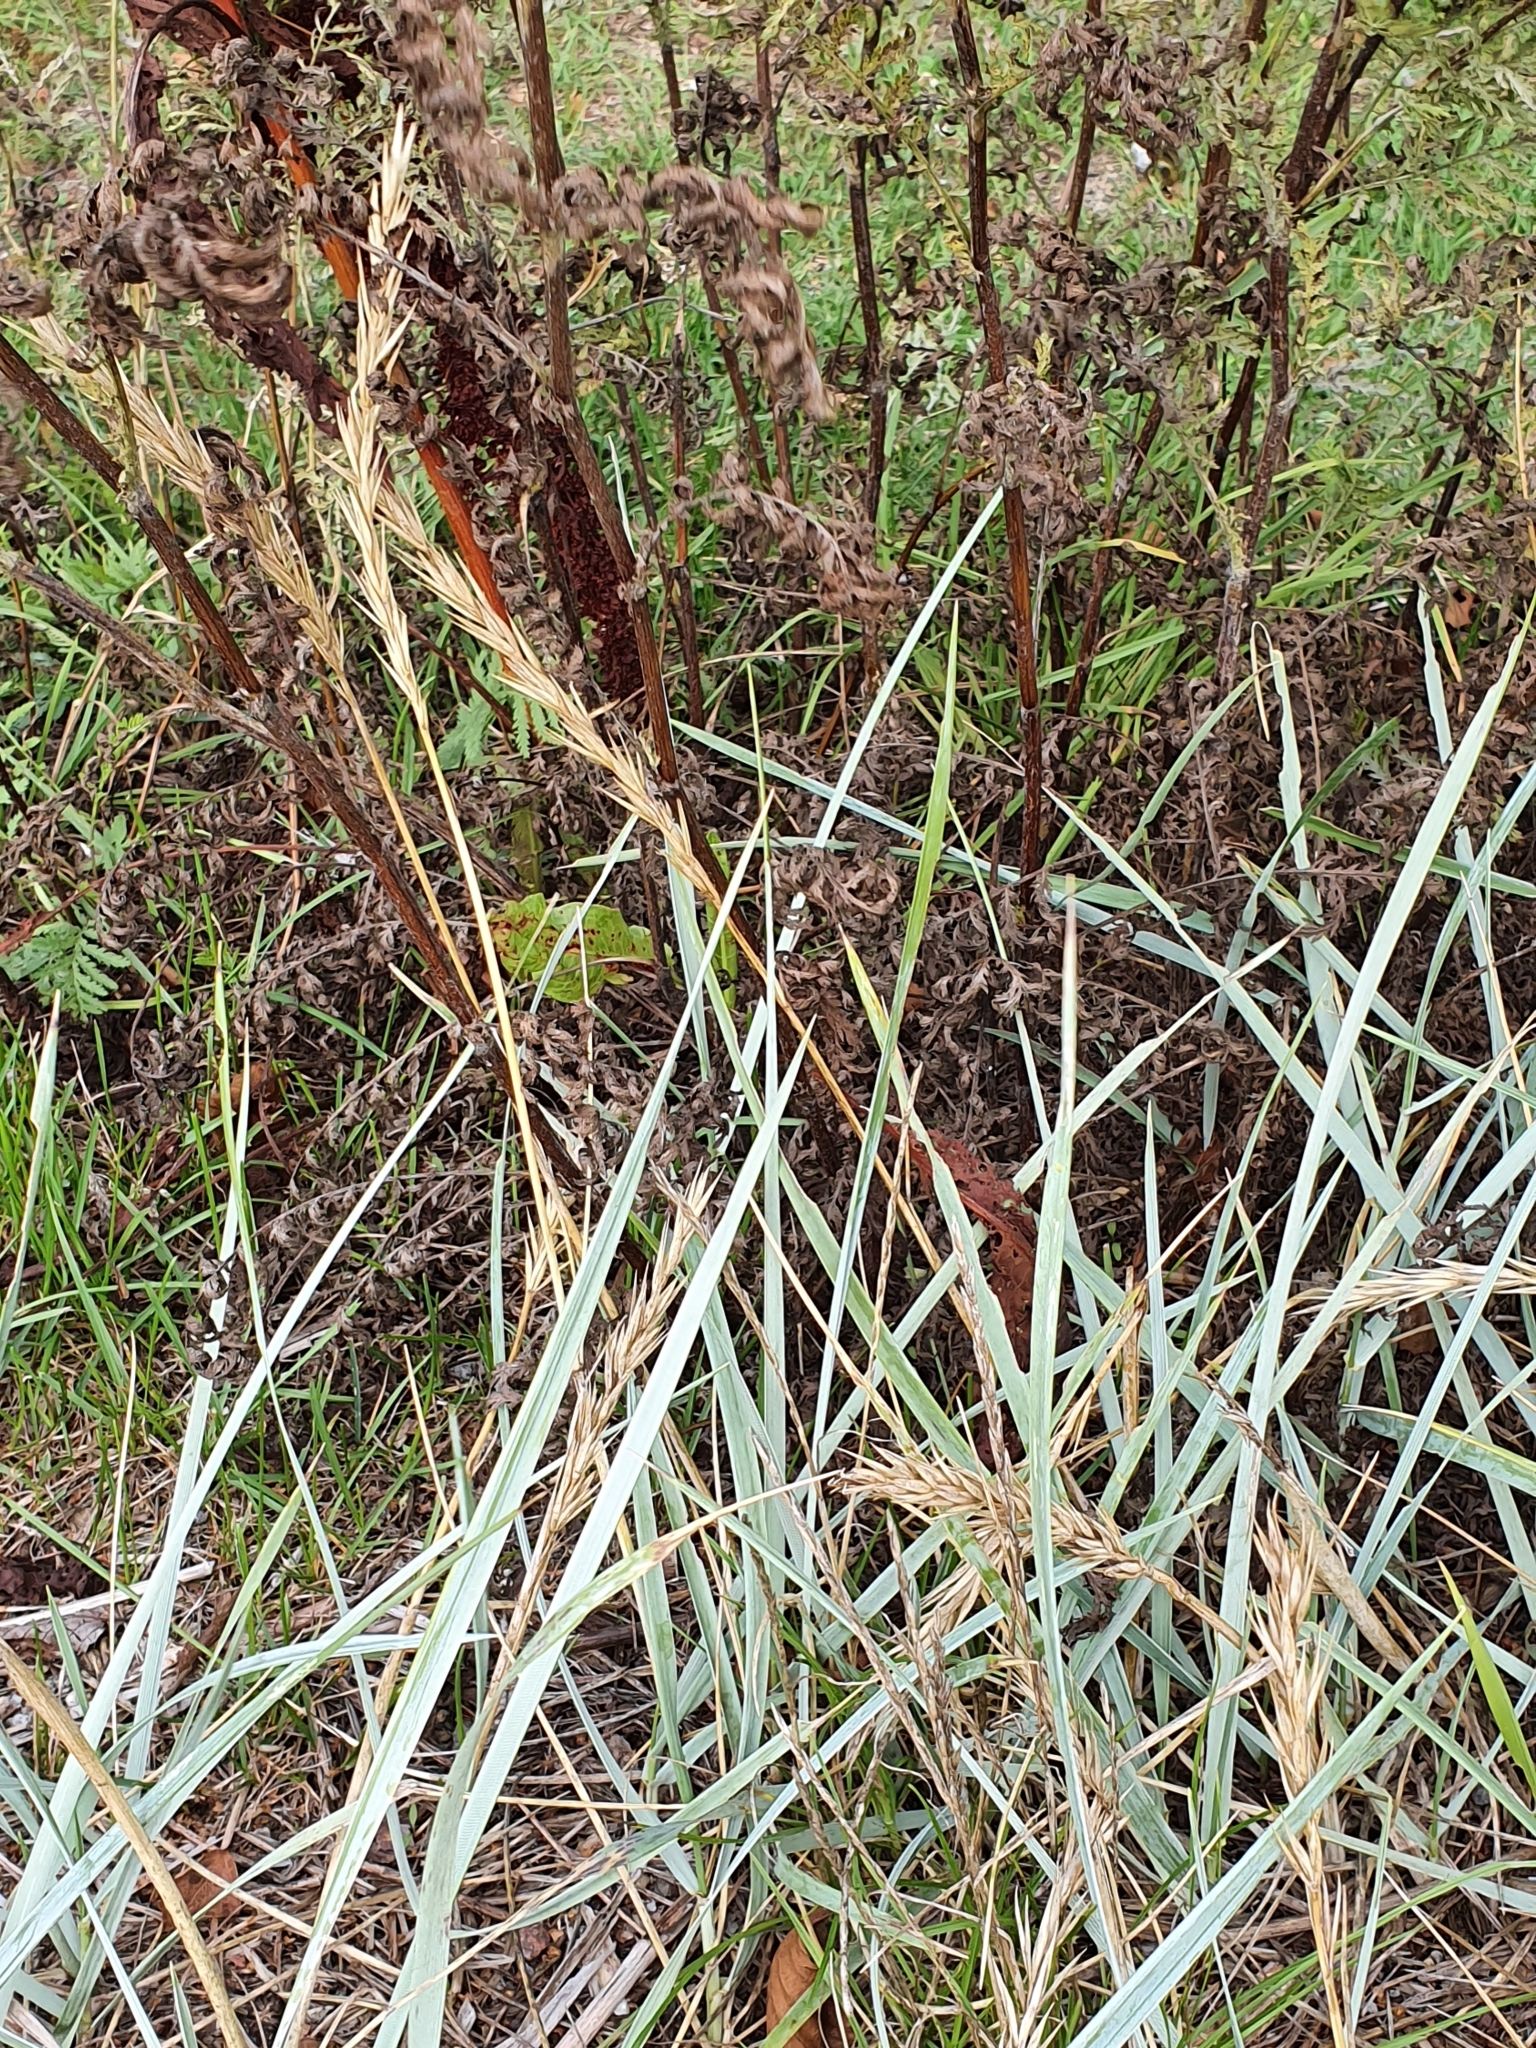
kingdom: Plantae
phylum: Tracheophyta
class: Liliopsida
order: Poales
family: Poaceae
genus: Leymus
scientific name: Leymus arenarius
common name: Lyme-grass
